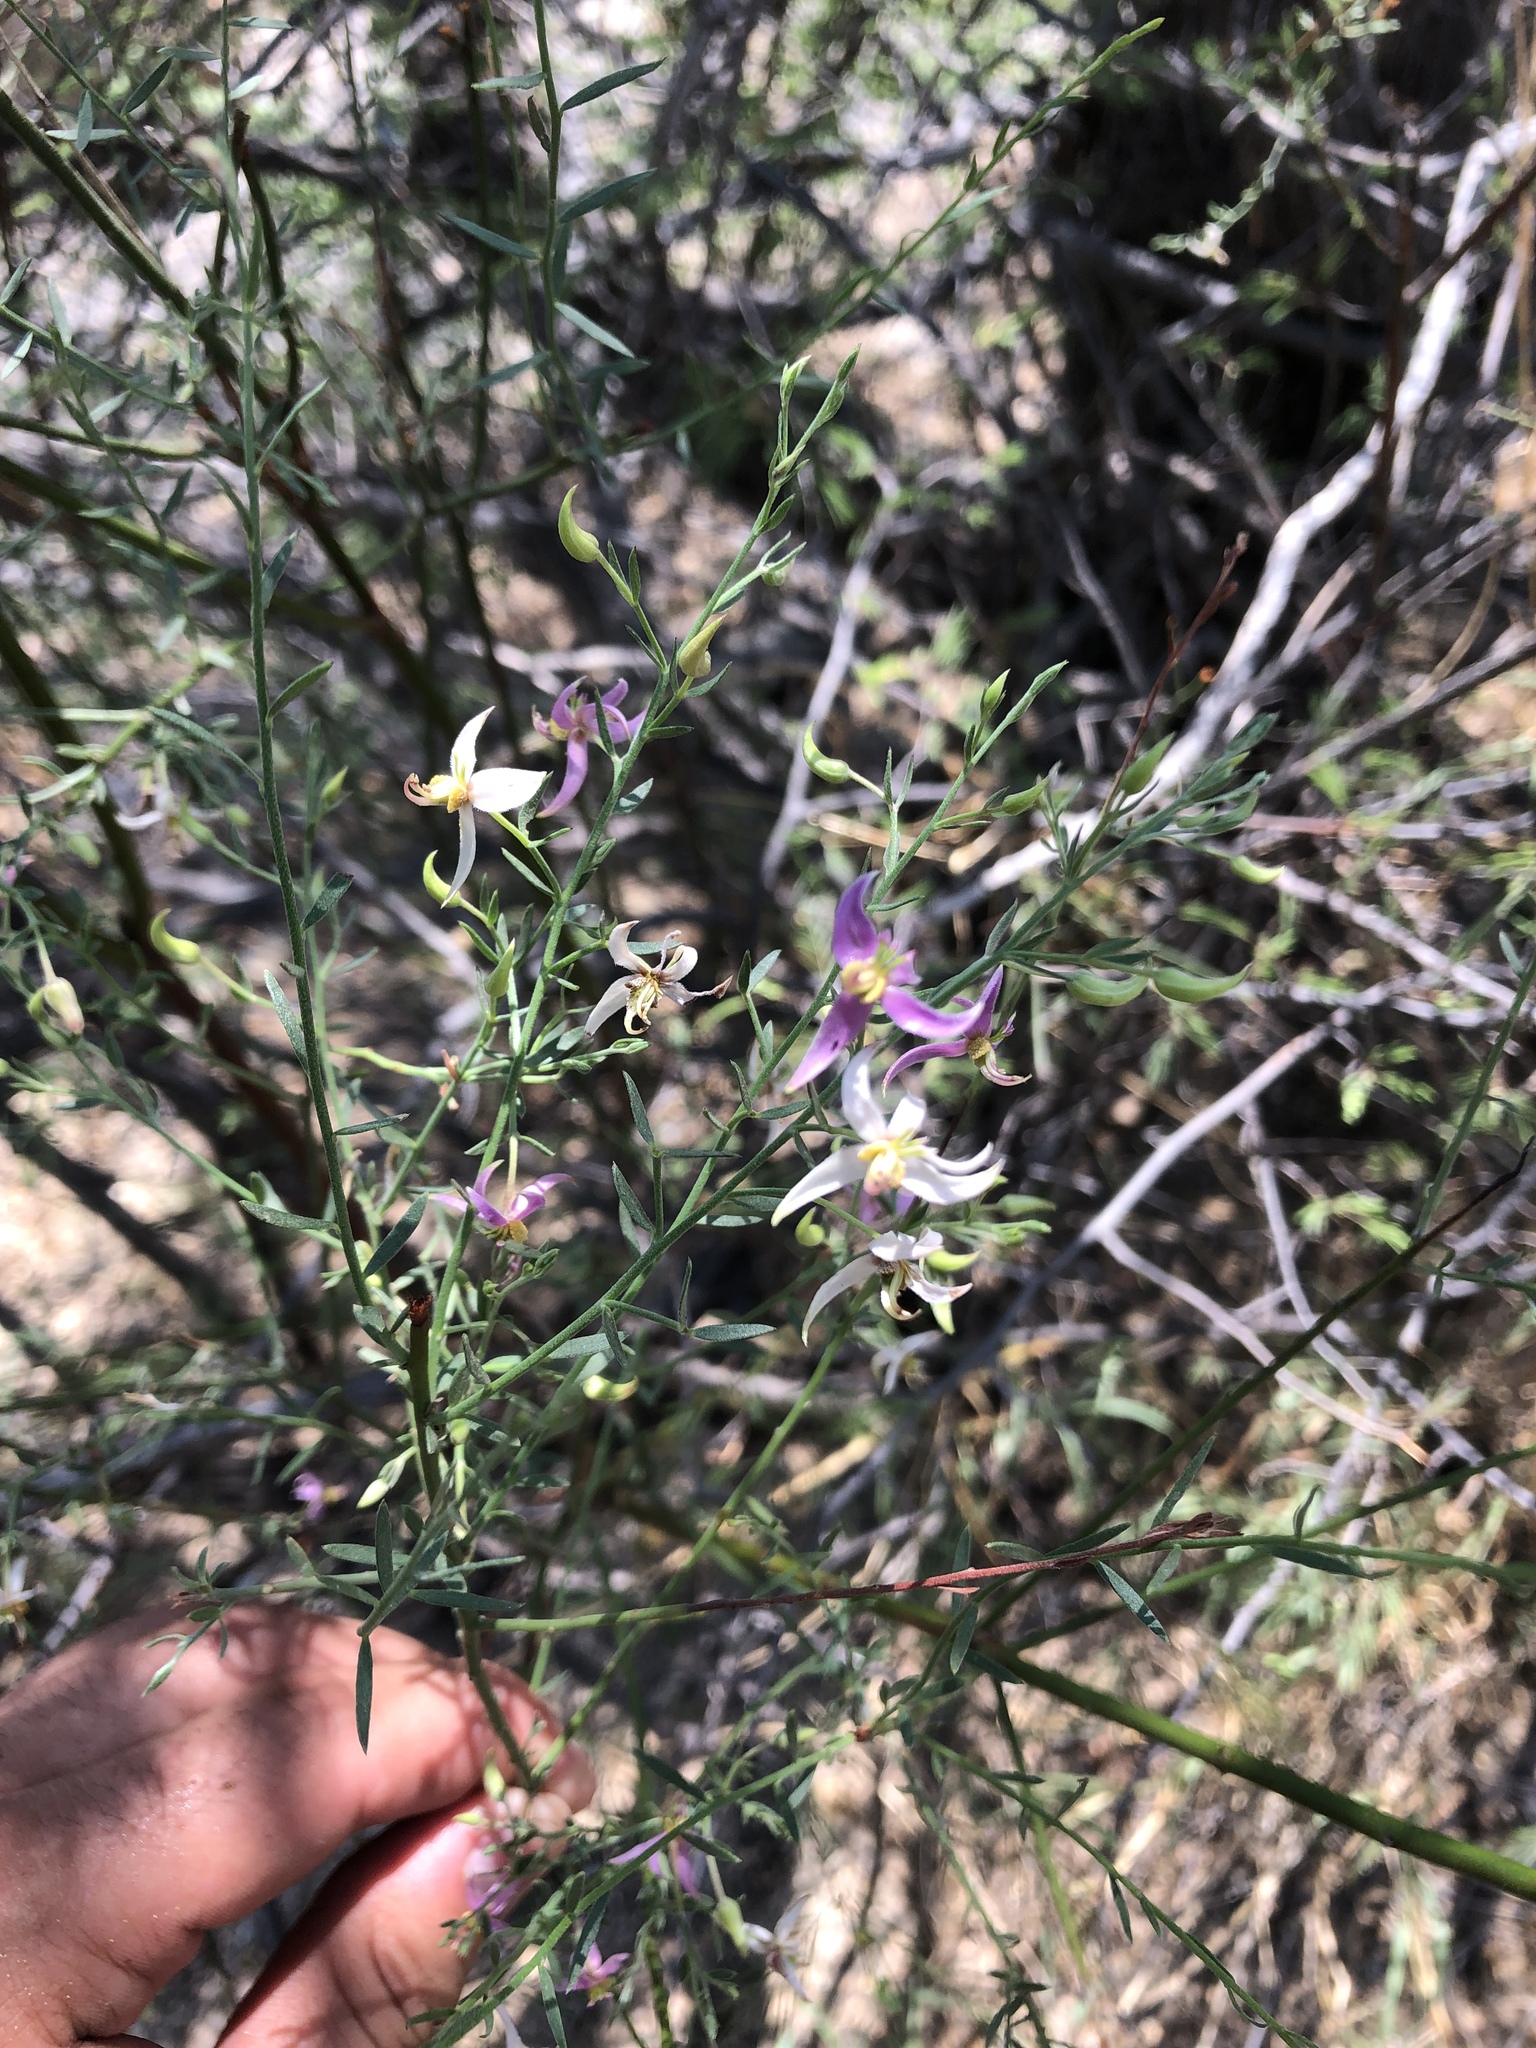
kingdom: Plantae
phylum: Tracheophyta
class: Magnoliopsida
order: Zygophyllales
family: Krameriaceae
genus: Krameria
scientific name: Krameria bicolor
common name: White ratany
